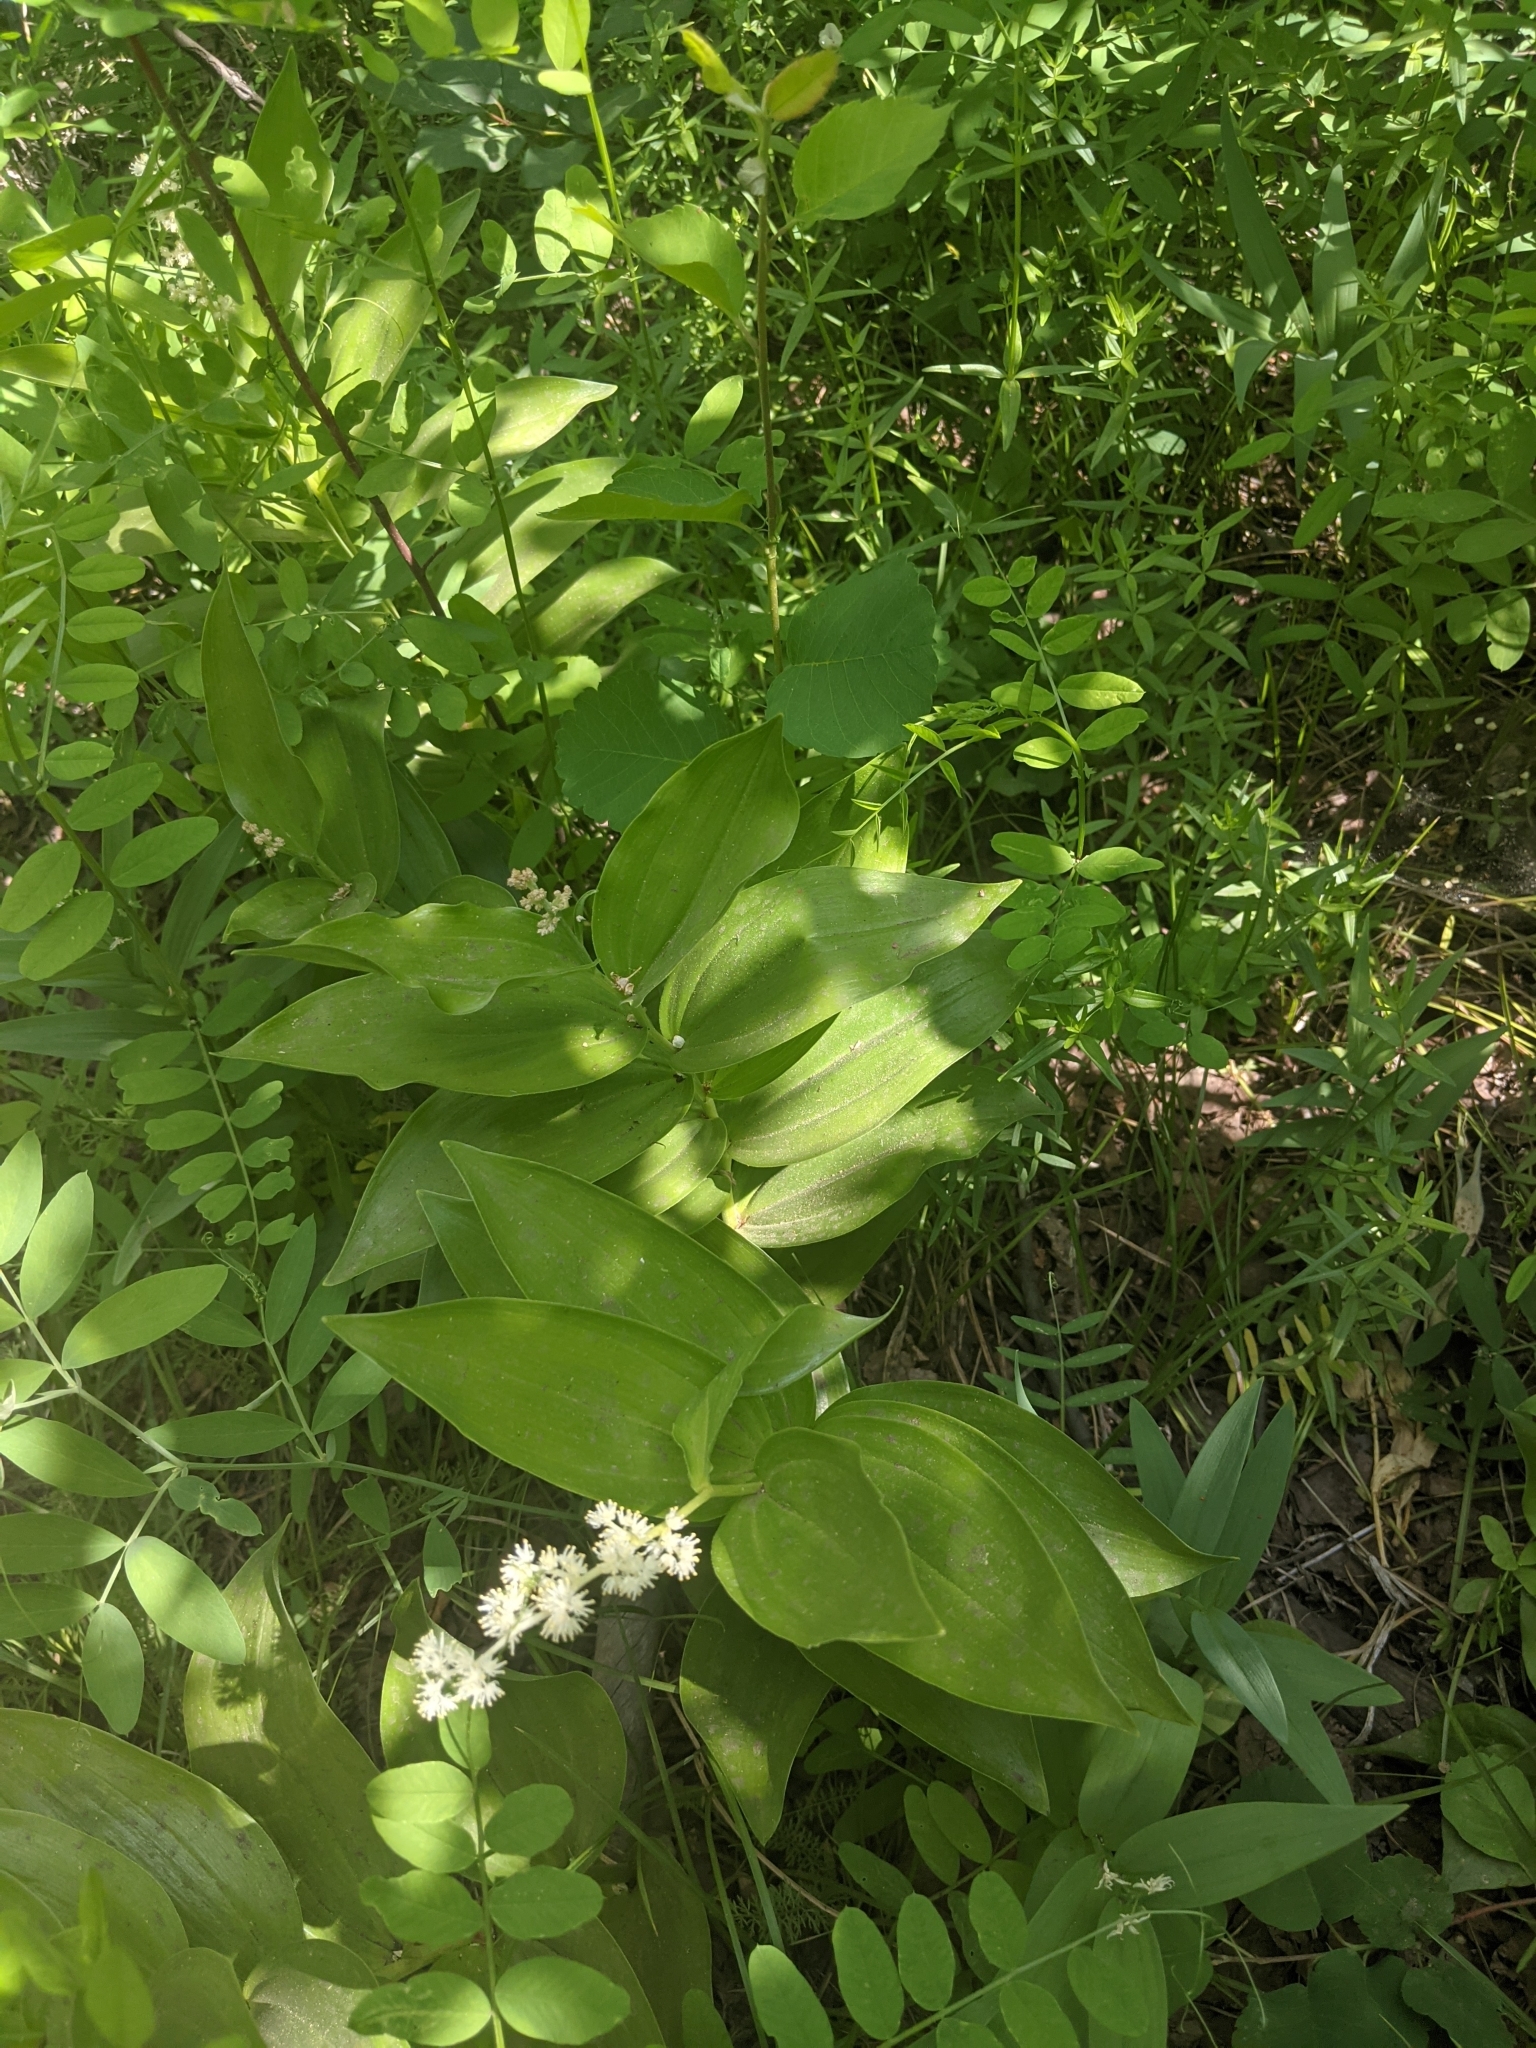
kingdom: Plantae
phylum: Tracheophyta
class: Liliopsida
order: Asparagales
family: Asparagaceae
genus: Maianthemum
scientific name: Maianthemum racemosum
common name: False spikenard
